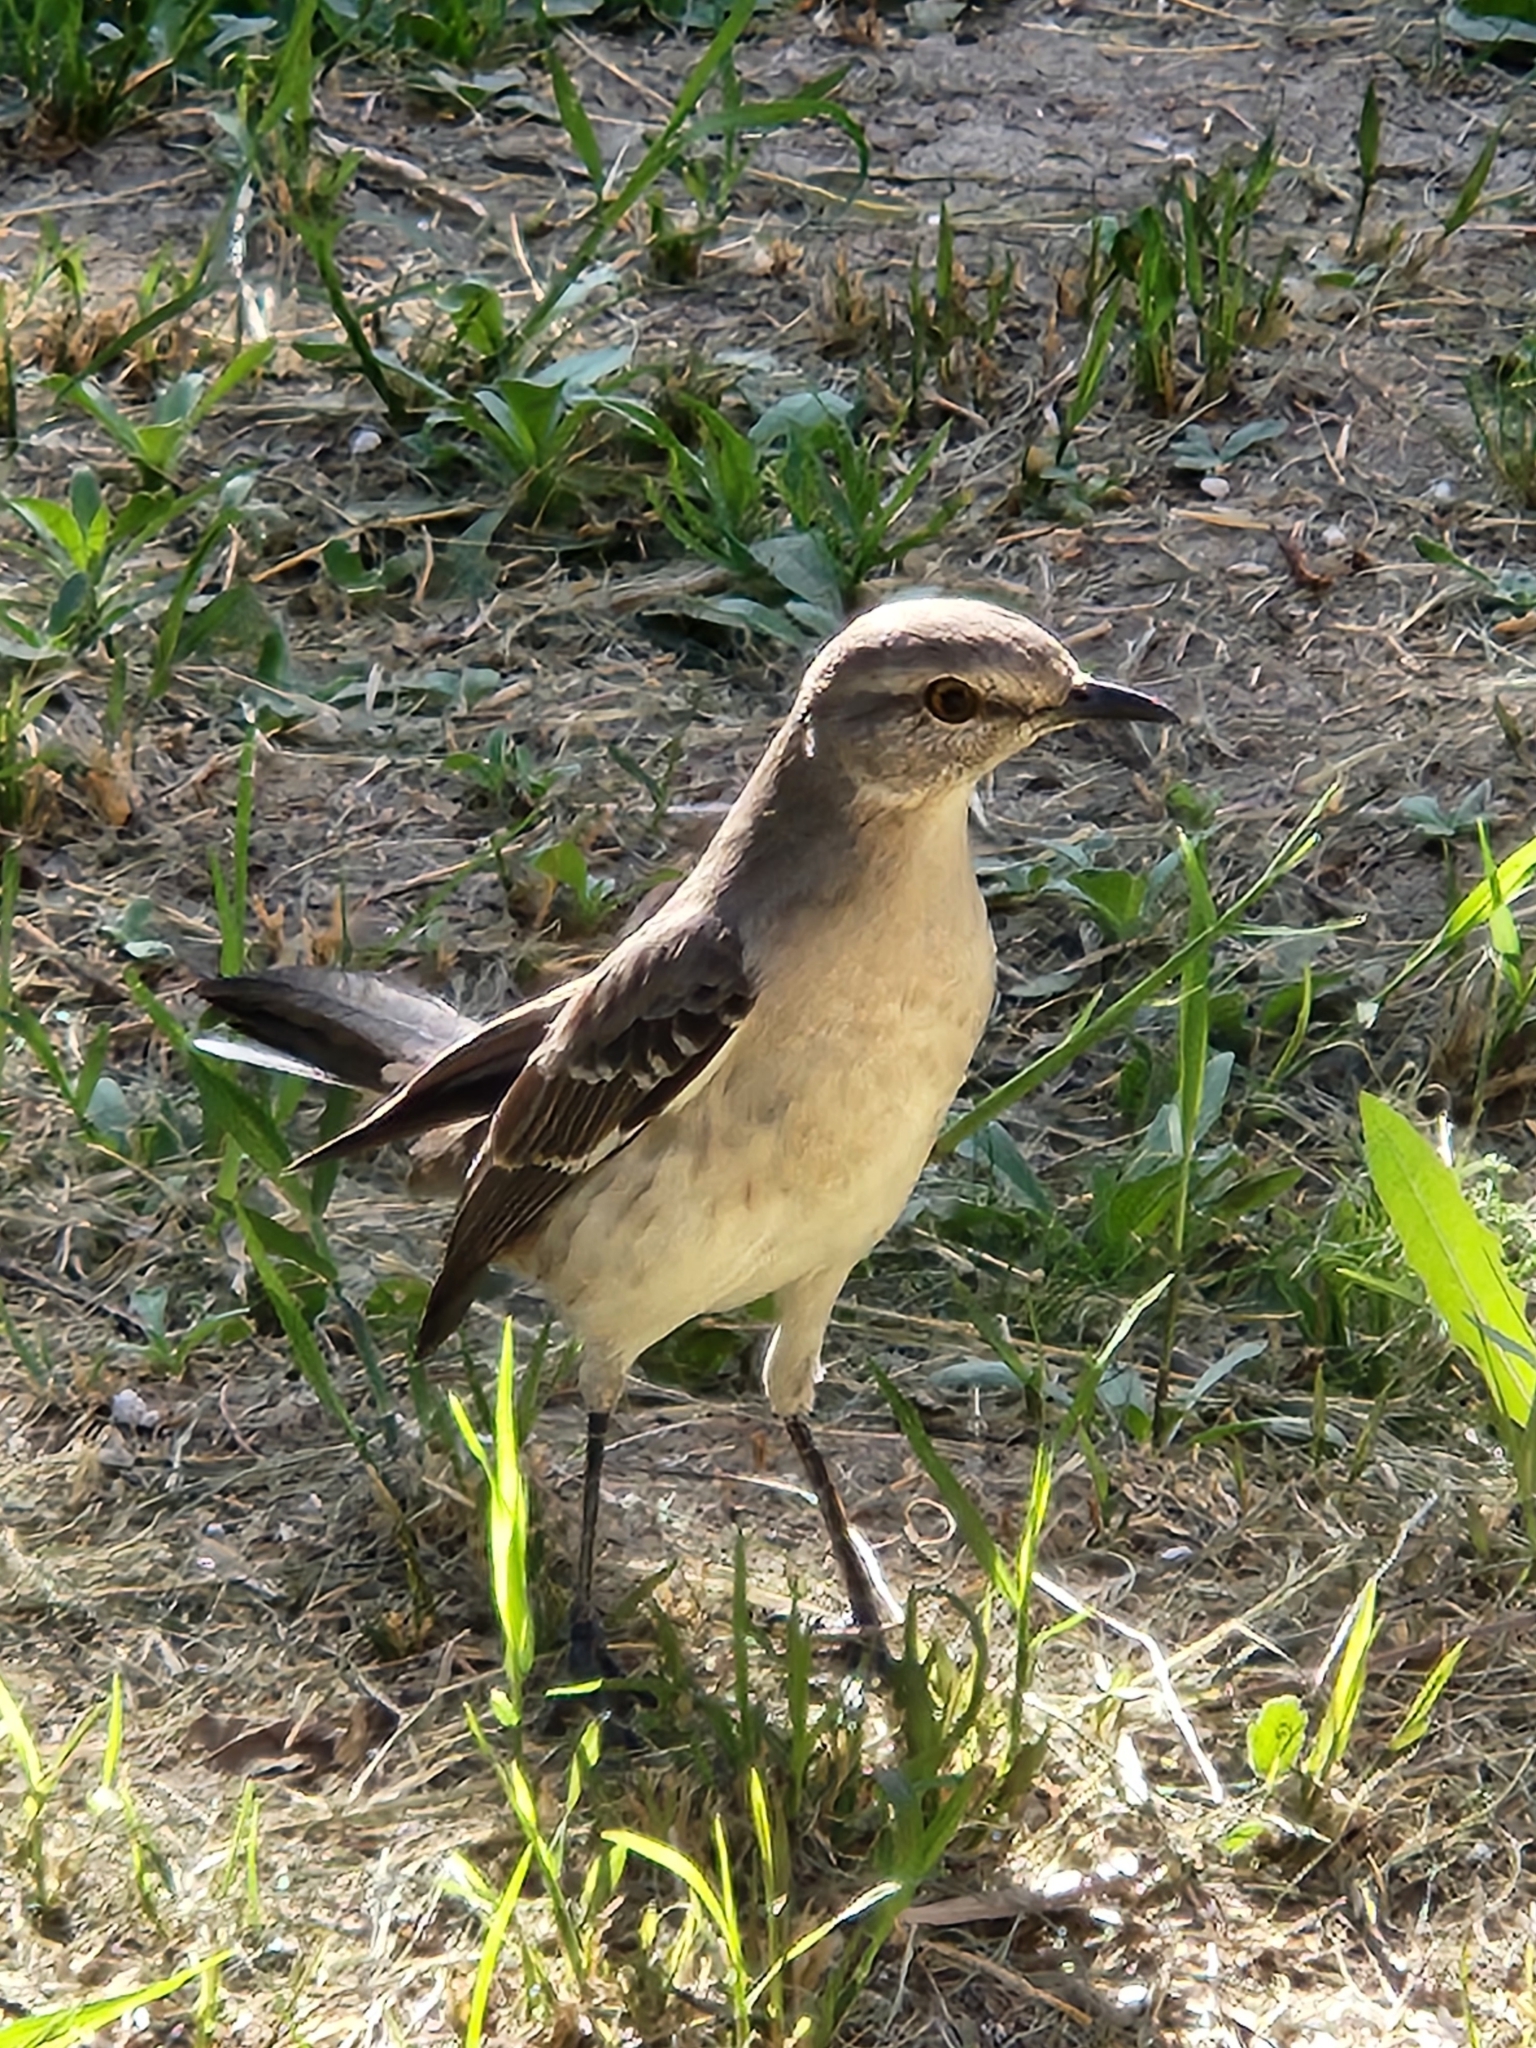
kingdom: Animalia
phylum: Chordata
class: Aves
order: Passeriformes
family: Mimidae
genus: Mimus
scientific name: Mimus polyglottos
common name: Northern mockingbird
